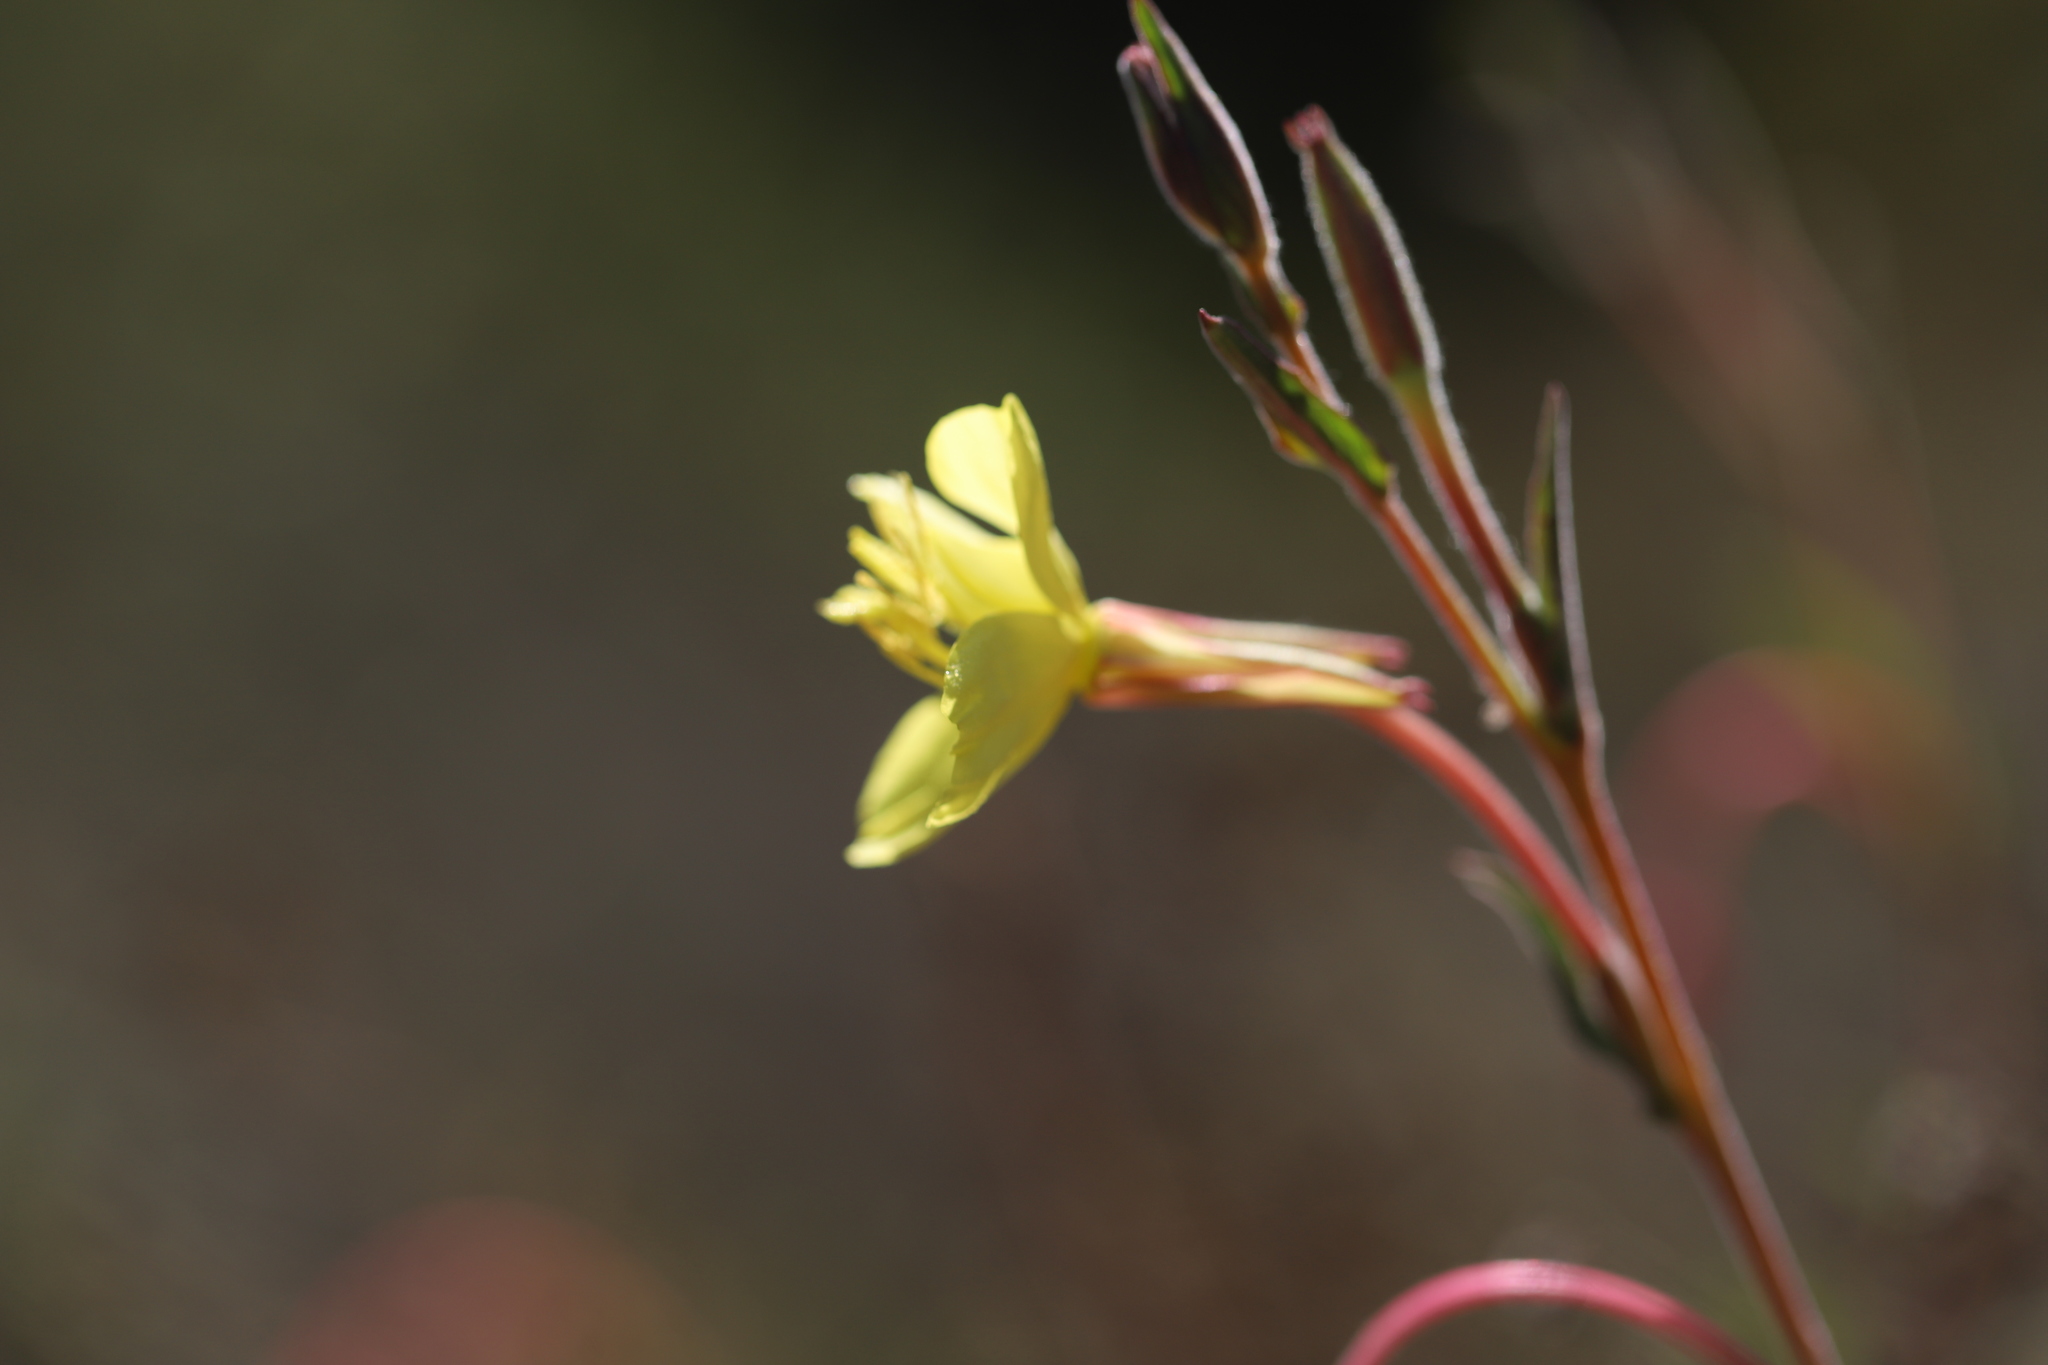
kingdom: Plantae
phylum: Tracheophyta
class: Magnoliopsida
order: Myrtales
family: Onagraceae
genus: Oenothera
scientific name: Oenothera stricta
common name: Fragrant evening-primrose
